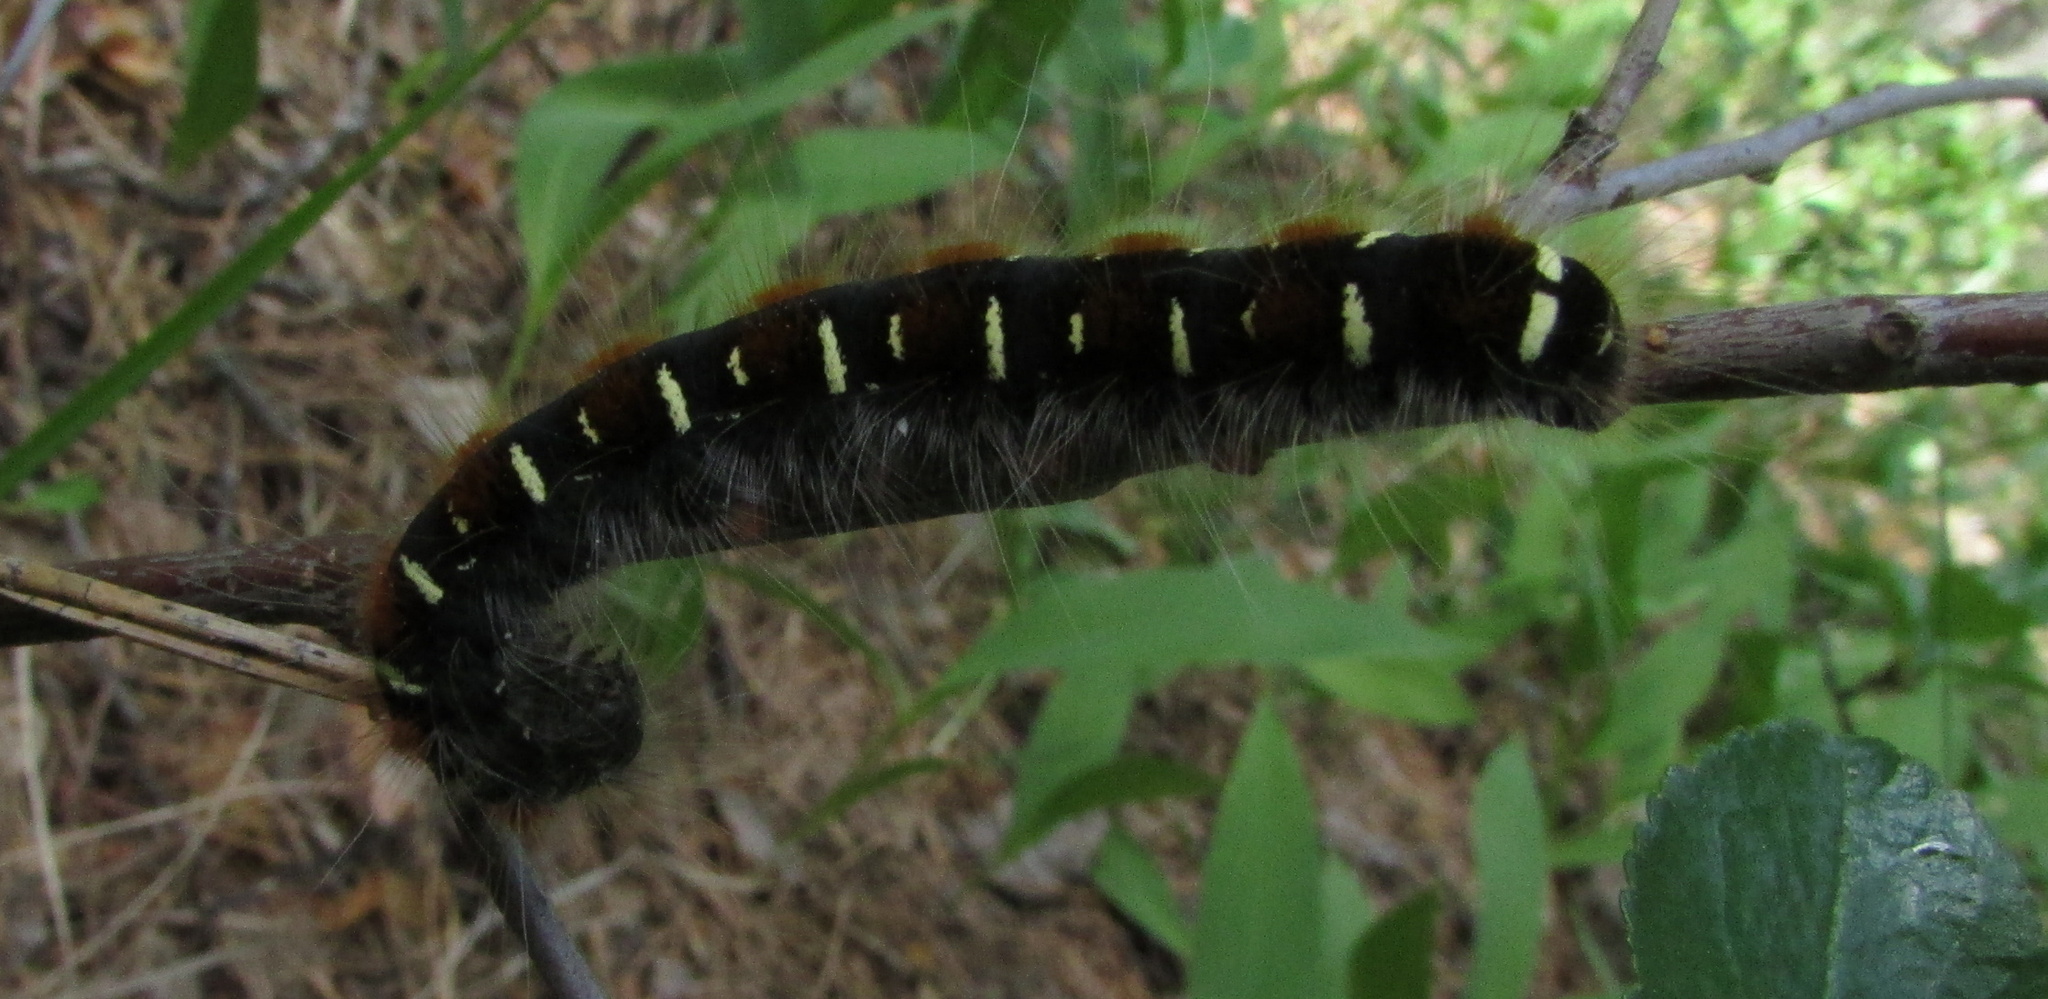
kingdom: Animalia
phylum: Arthropoda
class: Insecta
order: Lepidoptera
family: Lasiocampidae
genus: Eriogaster
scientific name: Eriogaster lanestris
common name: Small eggar
